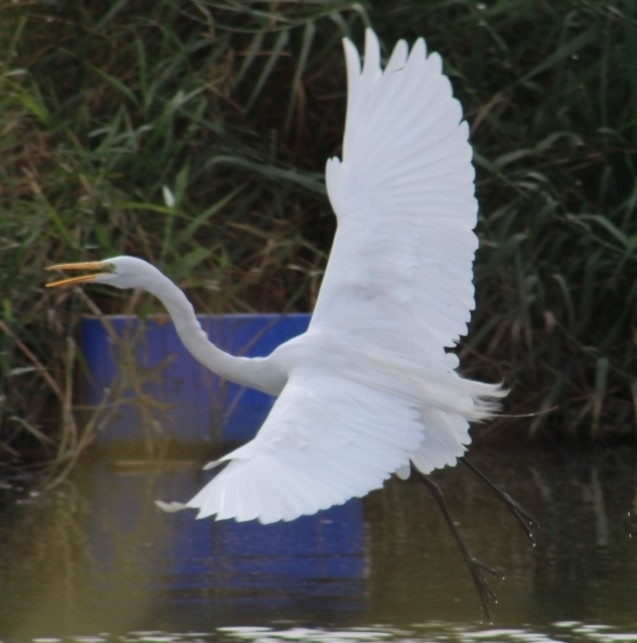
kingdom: Animalia
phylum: Chordata
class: Aves
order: Pelecaniformes
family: Ardeidae
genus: Ardea
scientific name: Ardea alba
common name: Great egret
